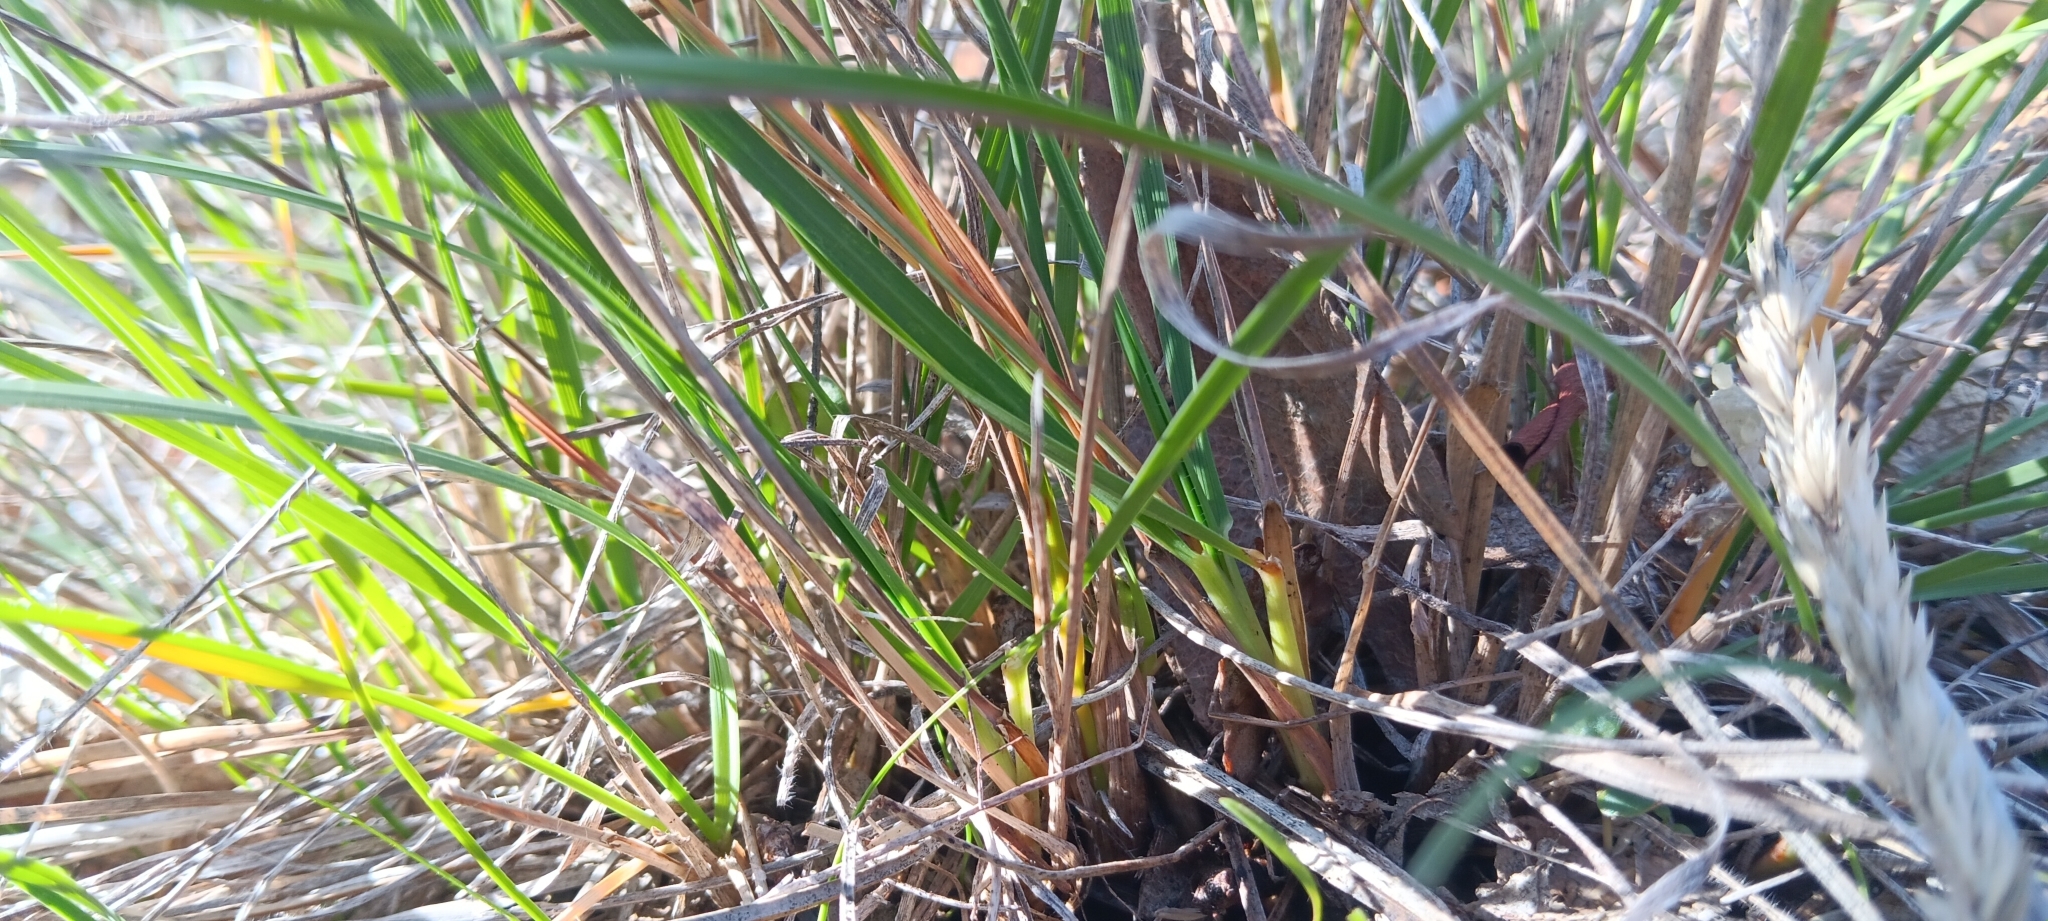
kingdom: Plantae
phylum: Tracheophyta
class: Liliopsida
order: Poales
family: Poaceae
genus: Koeleria
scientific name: Koeleria macrantha
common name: Crested hair-grass
